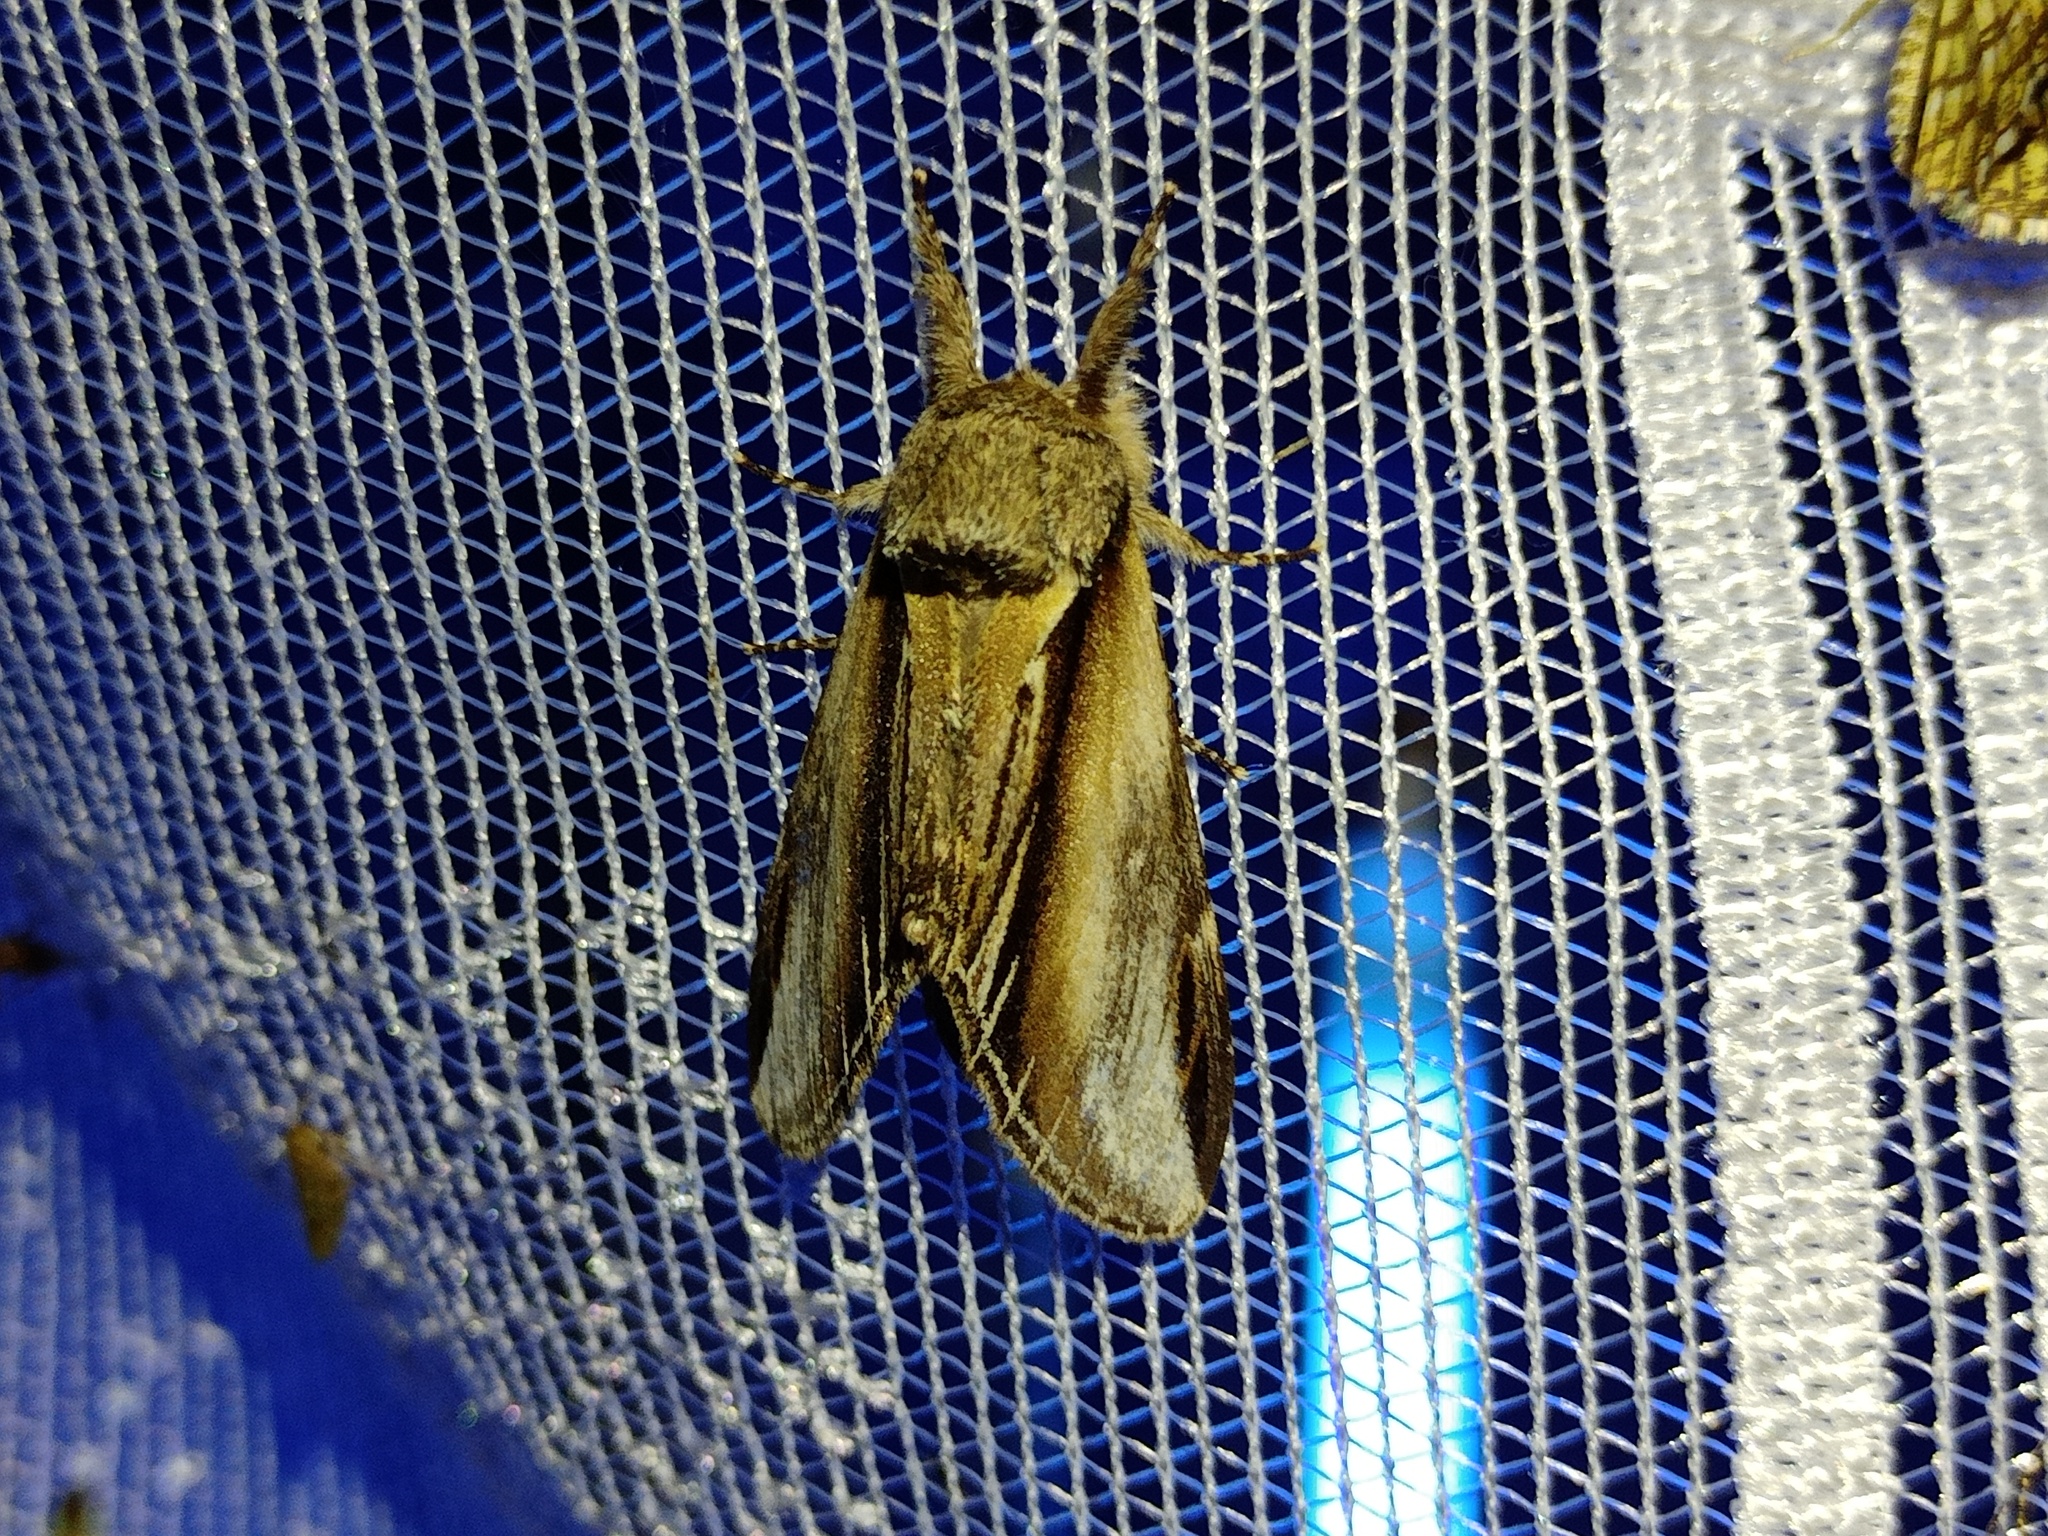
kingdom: Animalia
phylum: Arthropoda
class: Insecta
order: Lepidoptera
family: Notodontidae
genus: Pheosia
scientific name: Pheosia tremula
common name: Swallow prominent
